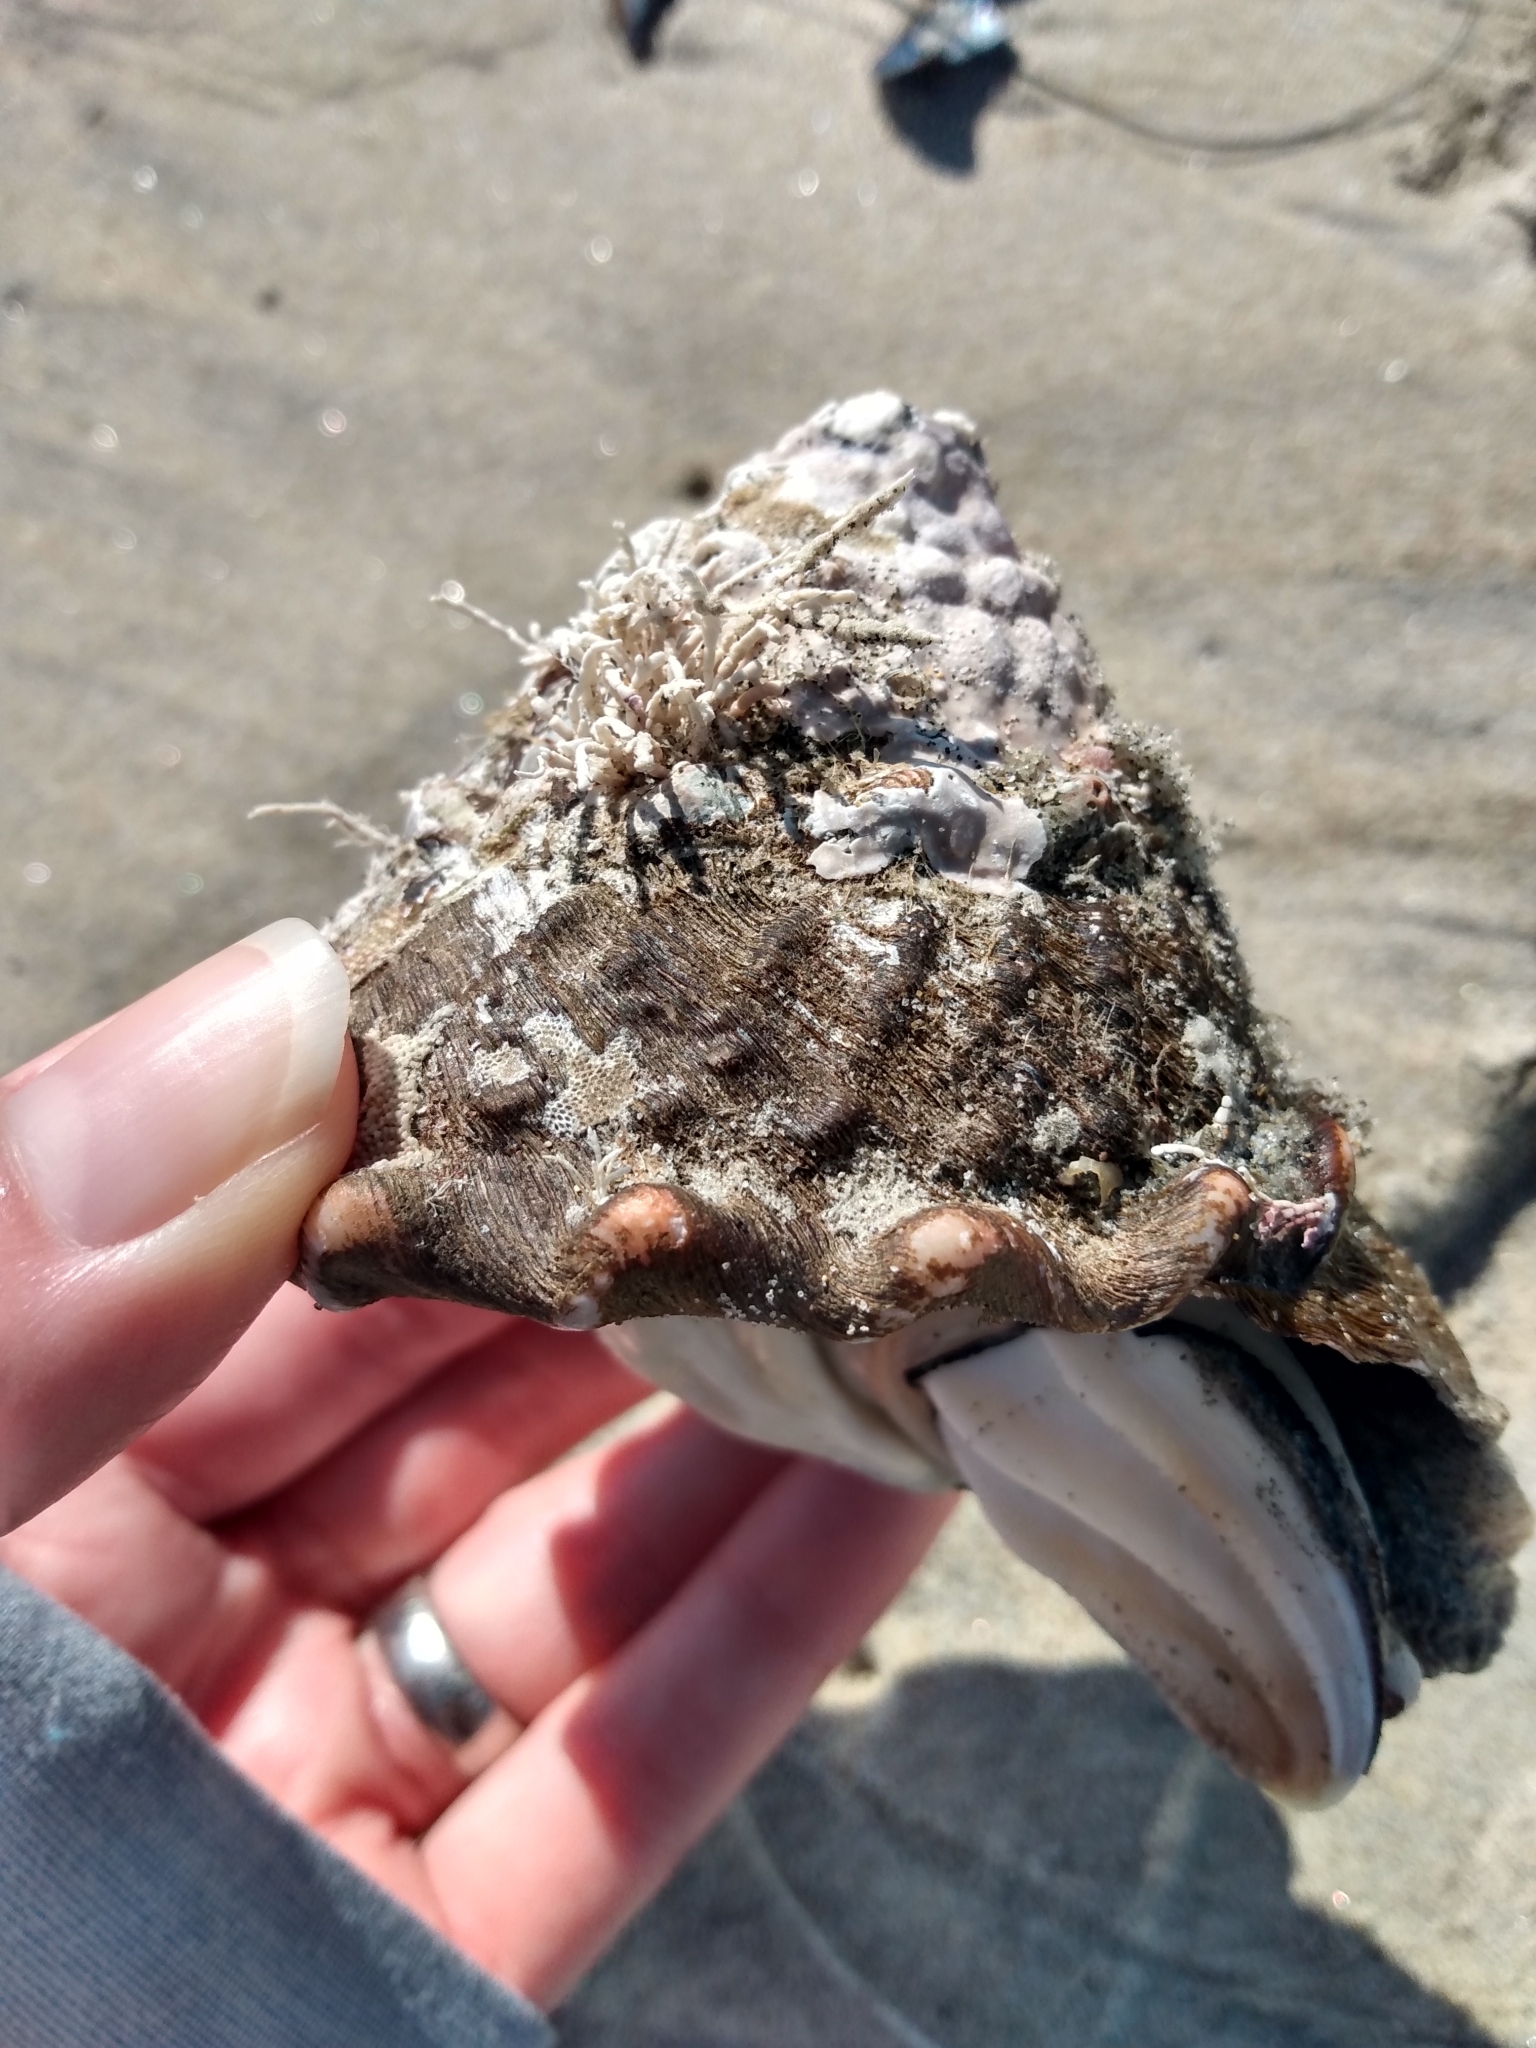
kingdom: Animalia
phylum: Mollusca
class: Gastropoda
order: Trochida
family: Turbinidae
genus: Megastraea
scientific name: Megastraea undosa
